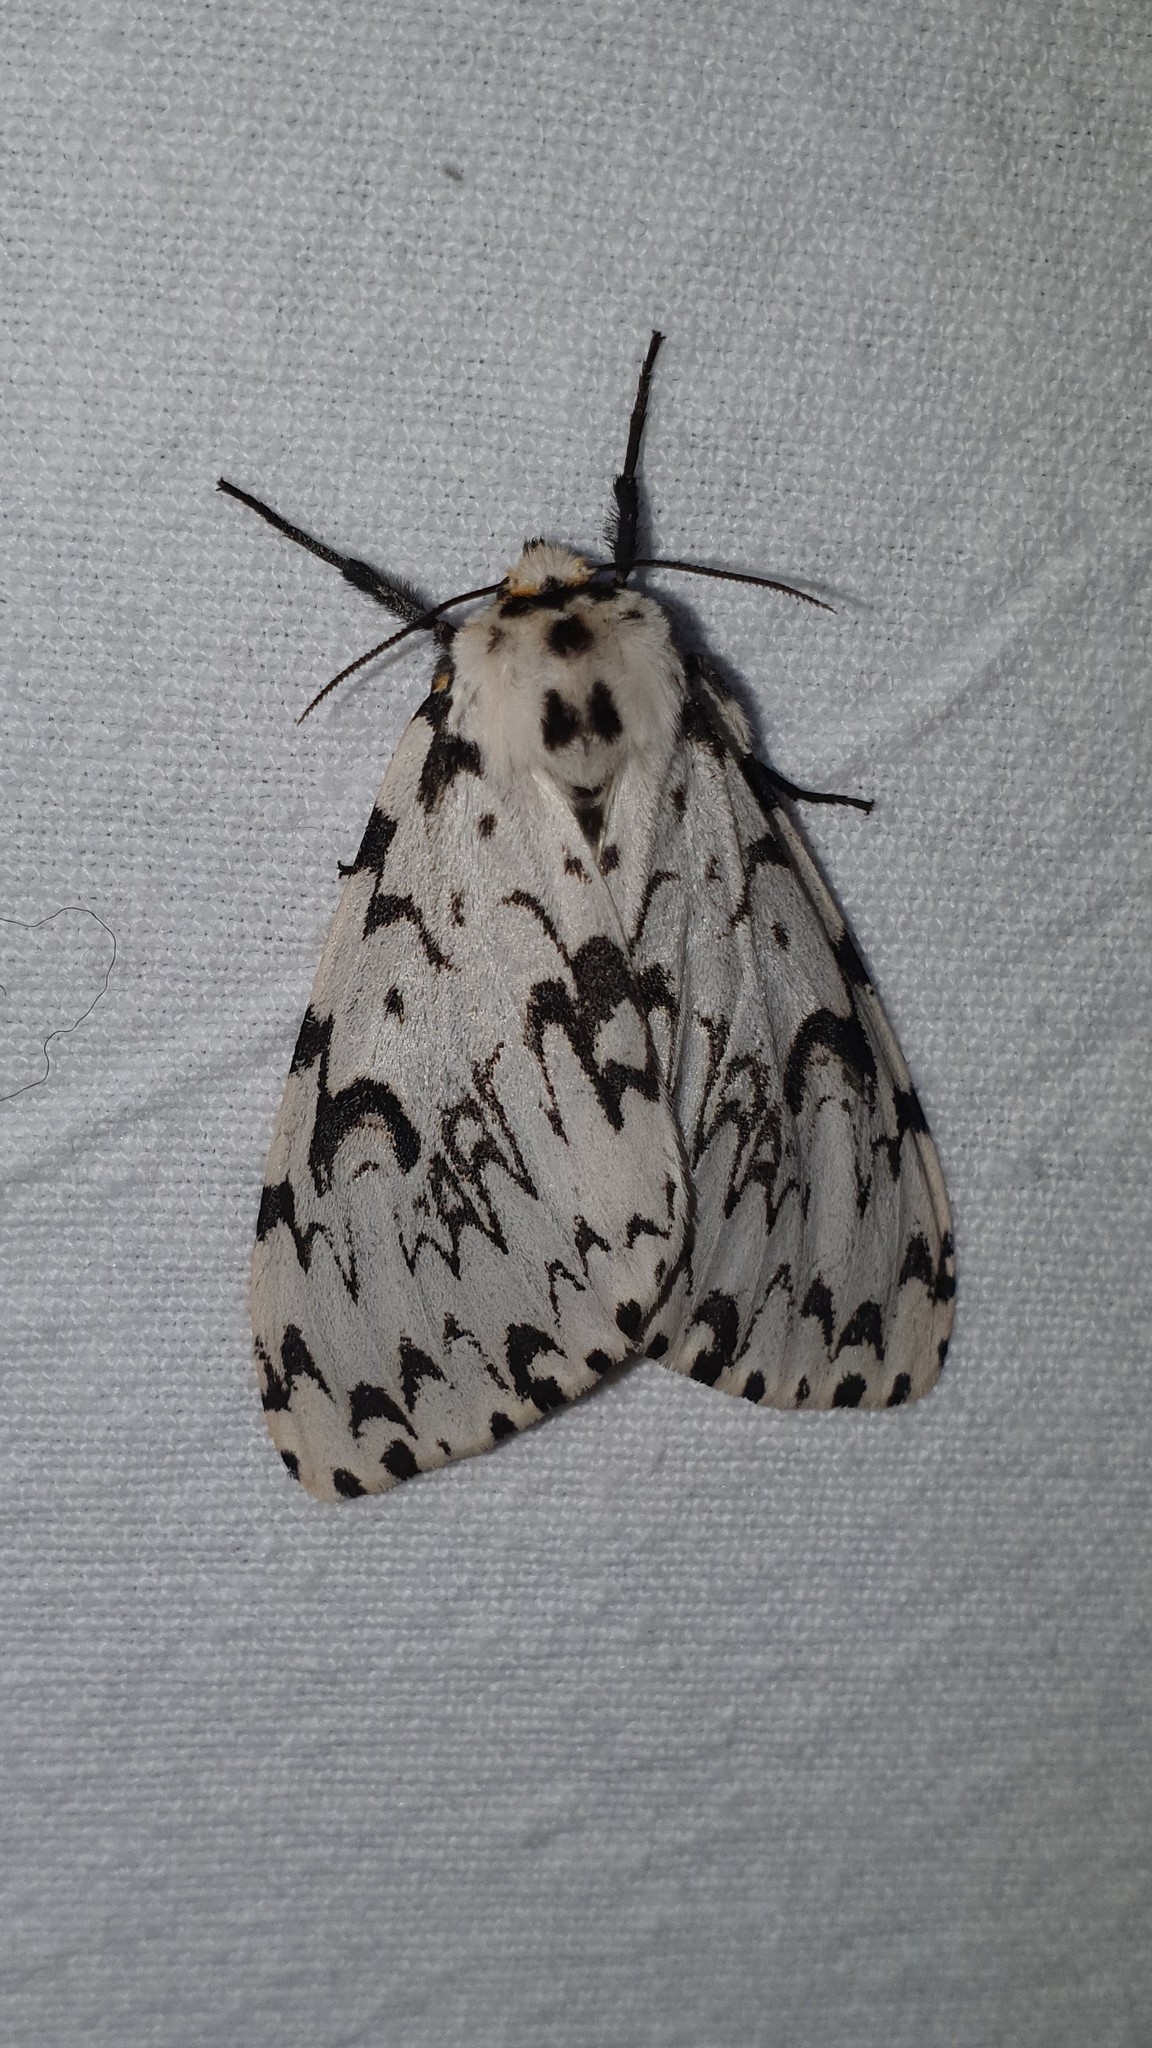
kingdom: Animalia
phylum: Arthropoda
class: Insecta
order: Lepidoptera
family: Erebidae
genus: Lymantria
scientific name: Lymantria monacha
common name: Black arches
